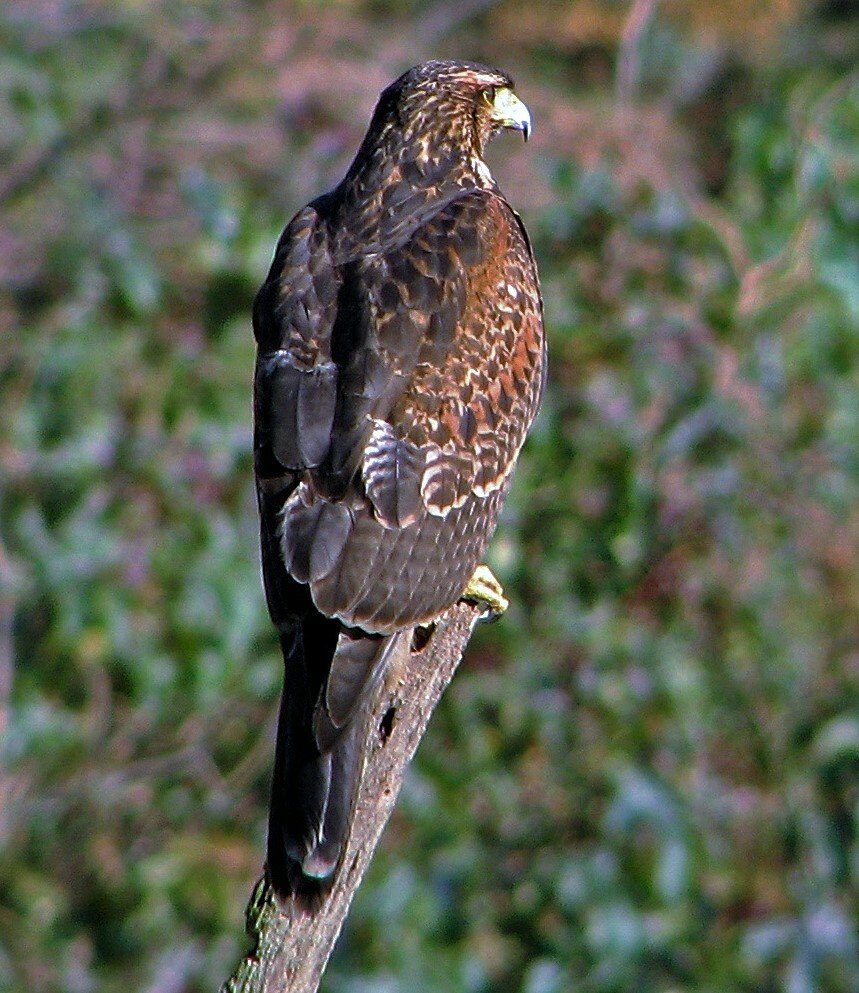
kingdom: Animalia
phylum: Chordata
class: Aves
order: Accipitriformes
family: Accipitridae
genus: Parabuteo
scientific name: Parabuteo unicinctus
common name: Harris's hawk
